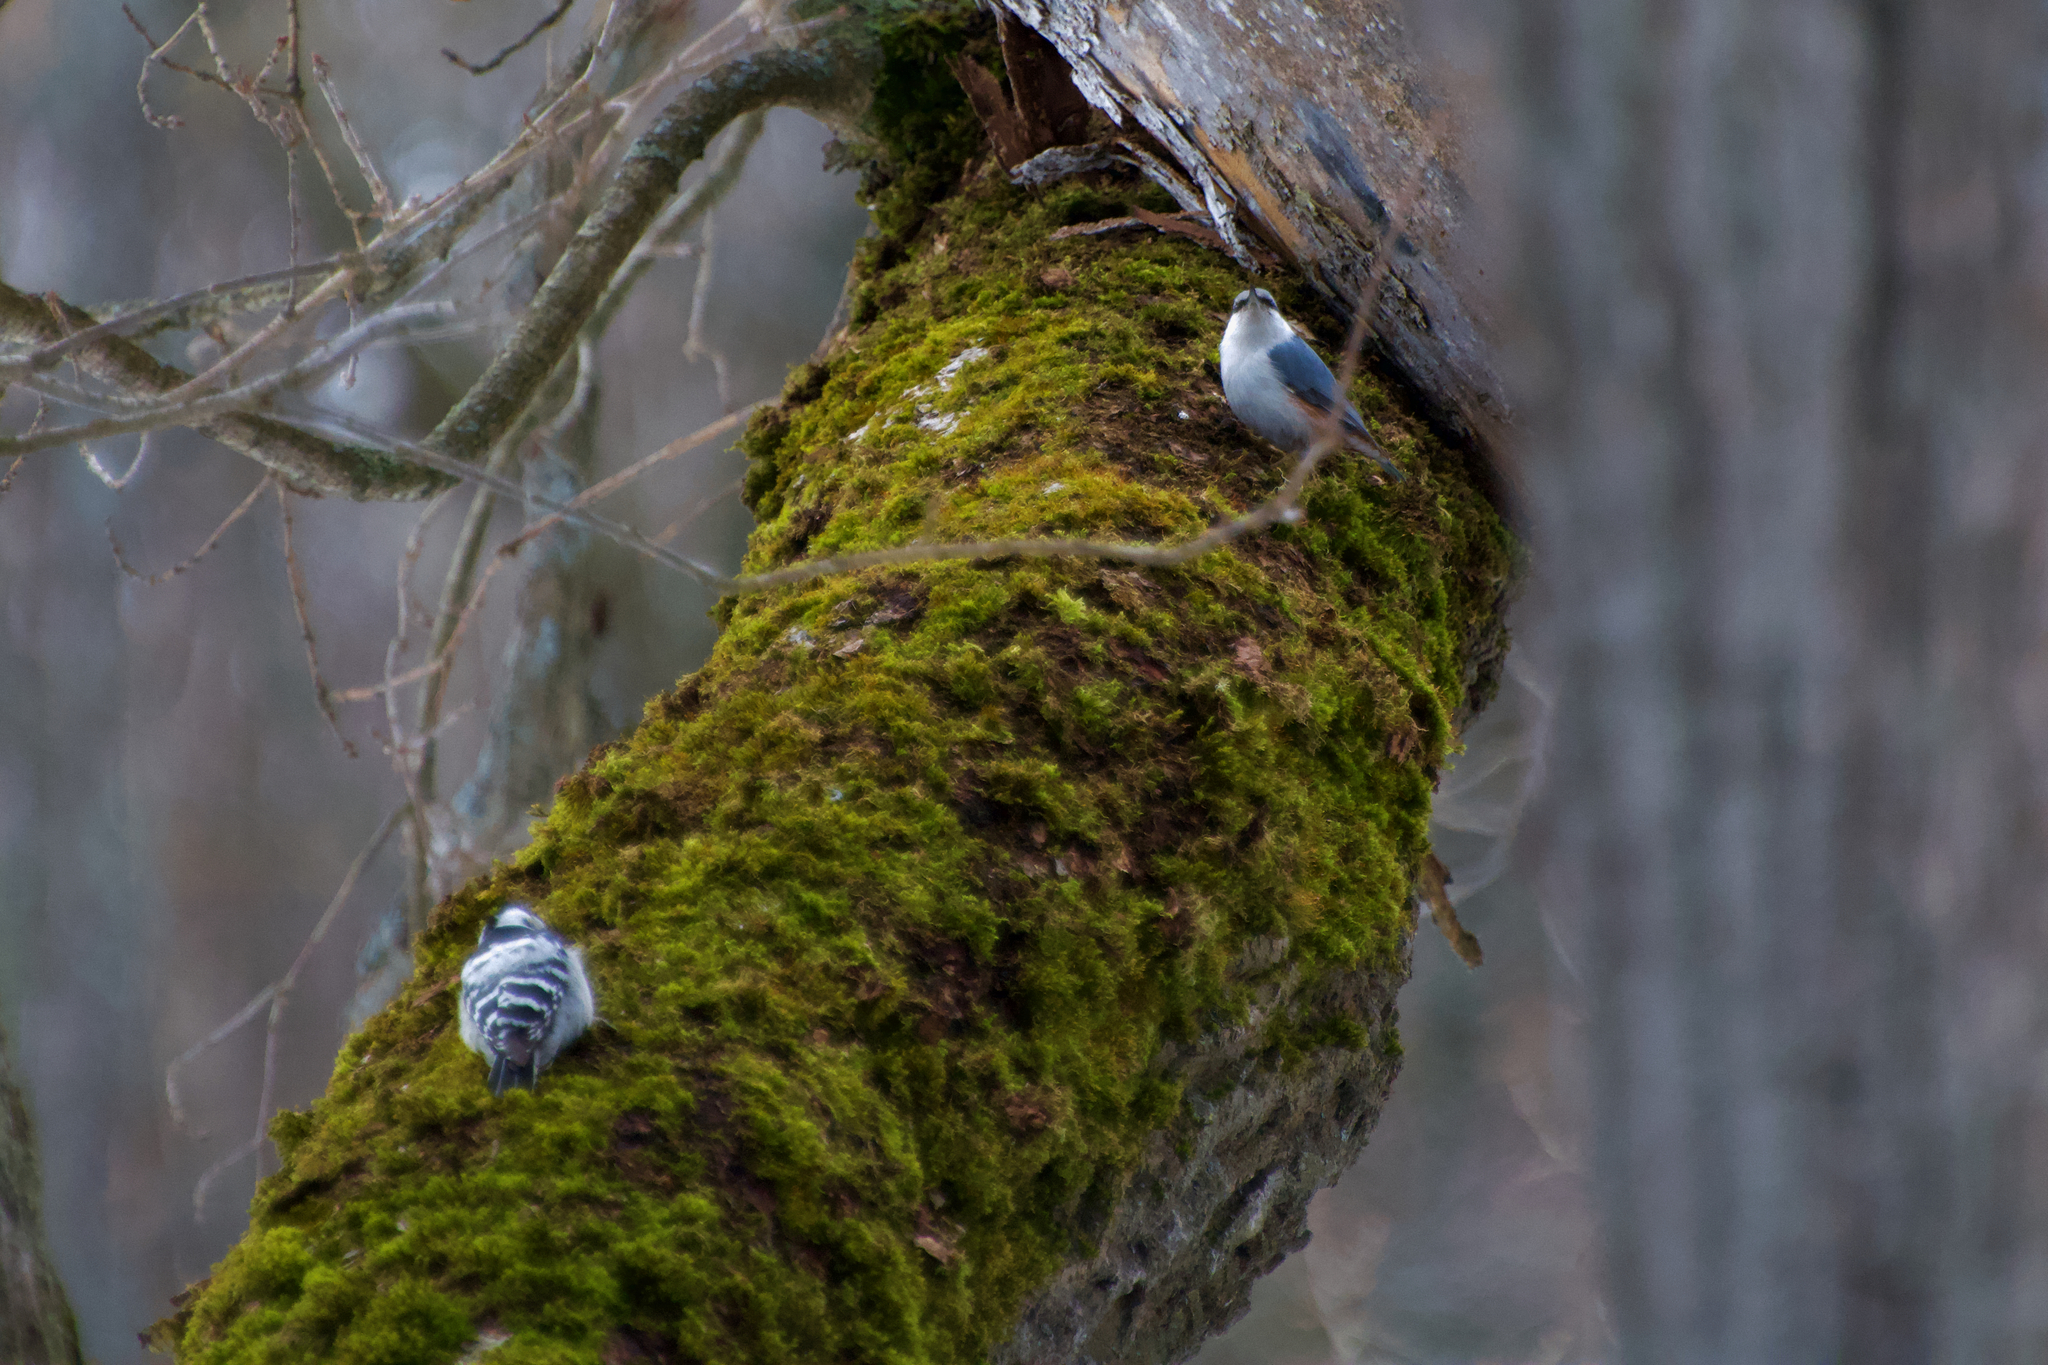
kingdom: Animalia
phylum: Chordata
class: Aves
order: Passeriformes
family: Sittidae
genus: Sitta
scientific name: Sitta europaea
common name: Eurasian nuthatch
